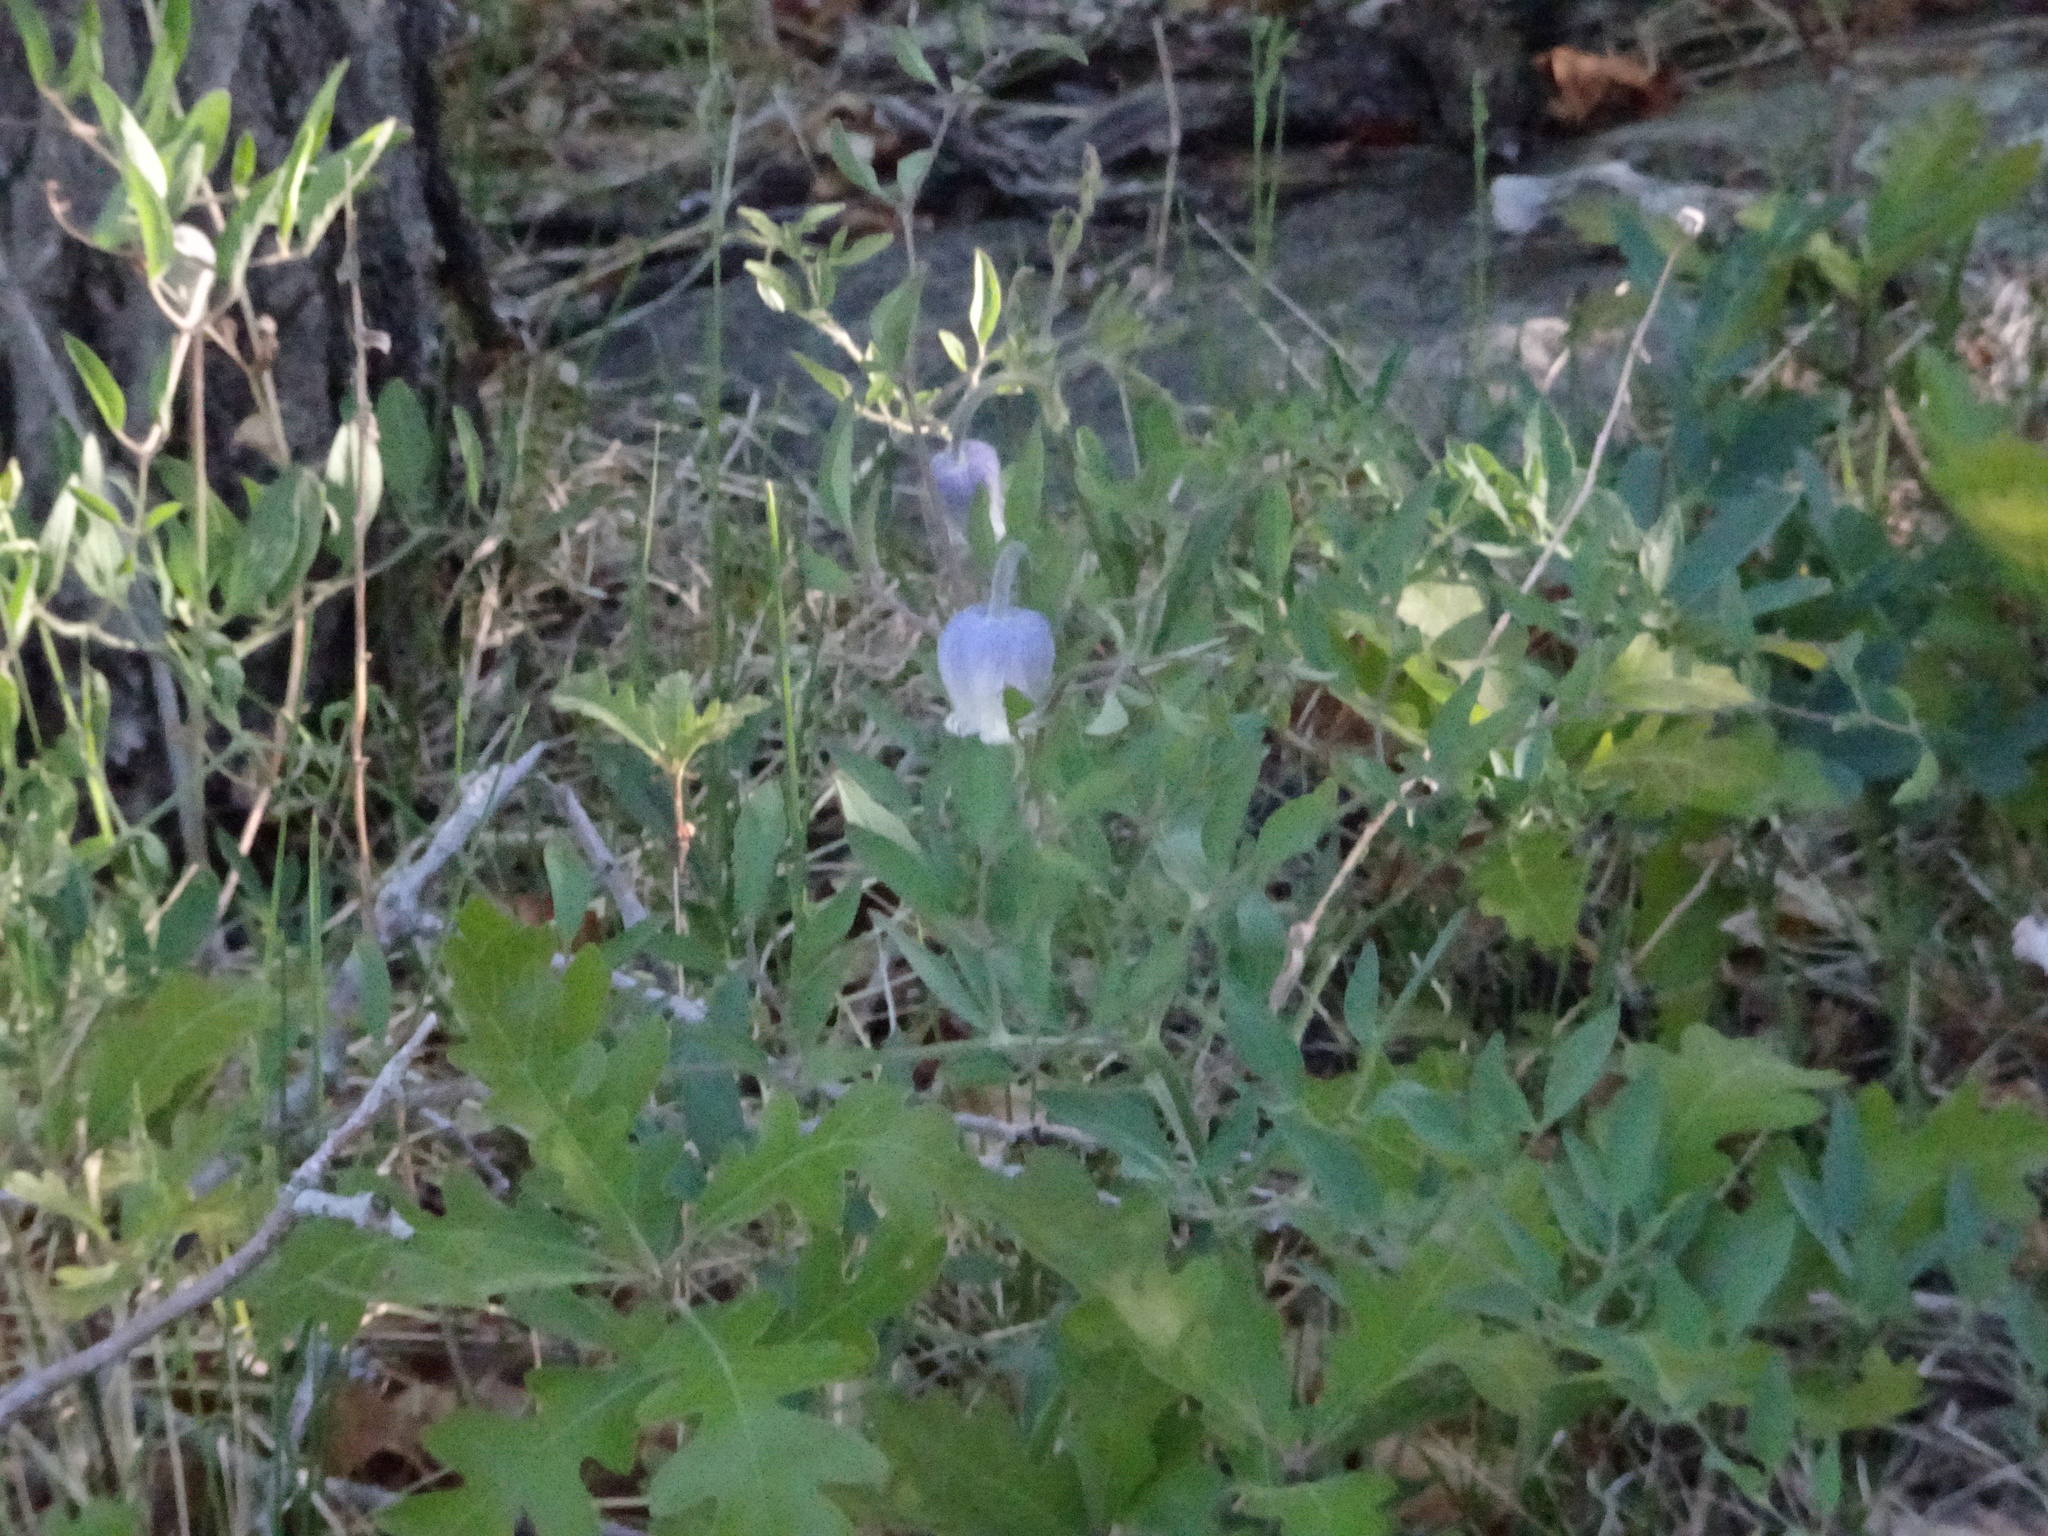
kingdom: Plantae
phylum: Tracheophyta
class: Magnoliopsida
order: Ranunculales
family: Ranunculaceae
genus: Clematis
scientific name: Clematis hirsutissima
